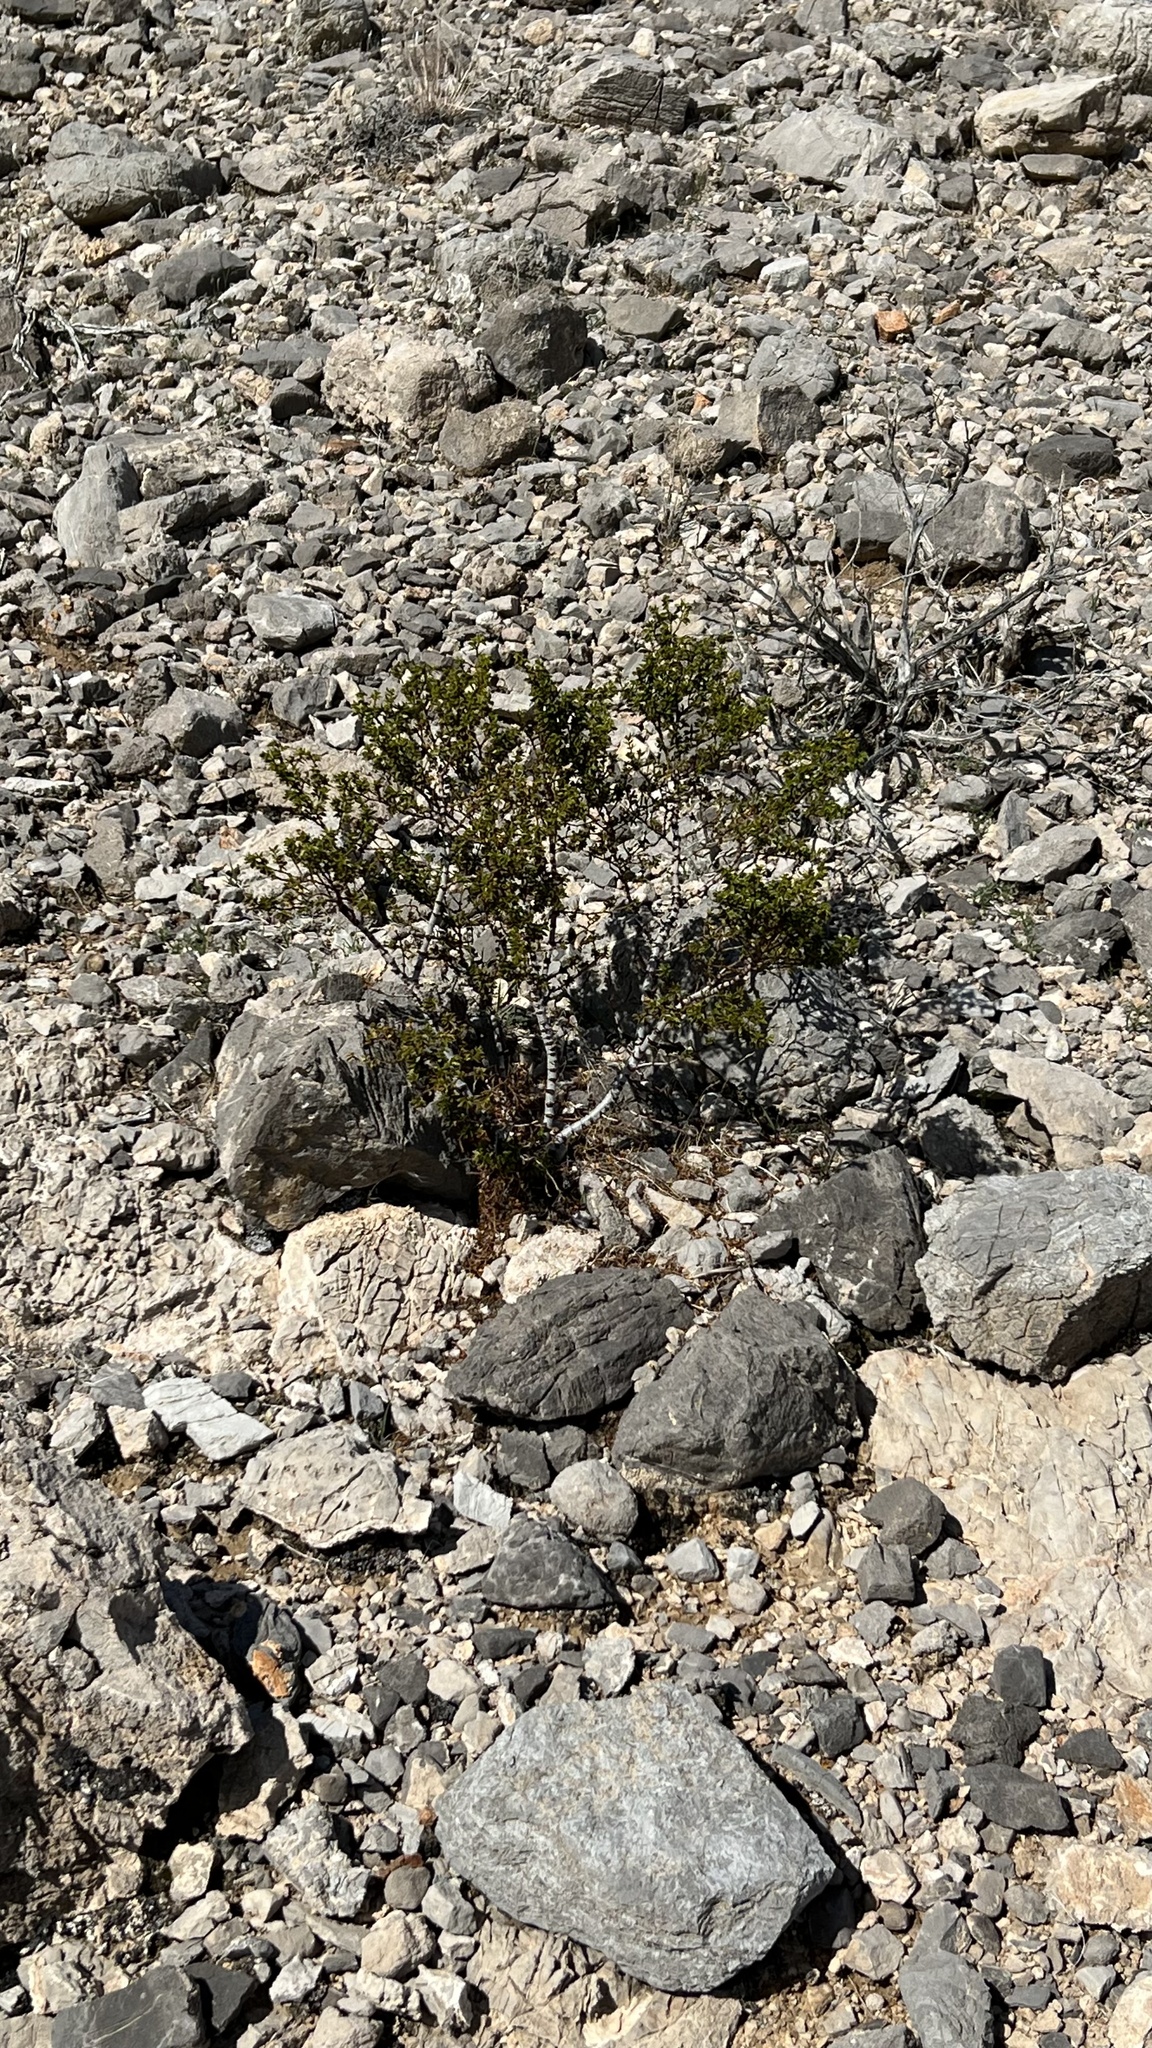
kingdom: Plantae
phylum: Tracheophyta
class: Magnoliopsida
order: Zygophyllales
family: Zygophyllaceae
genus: Larrea
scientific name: Larrea tridentata
